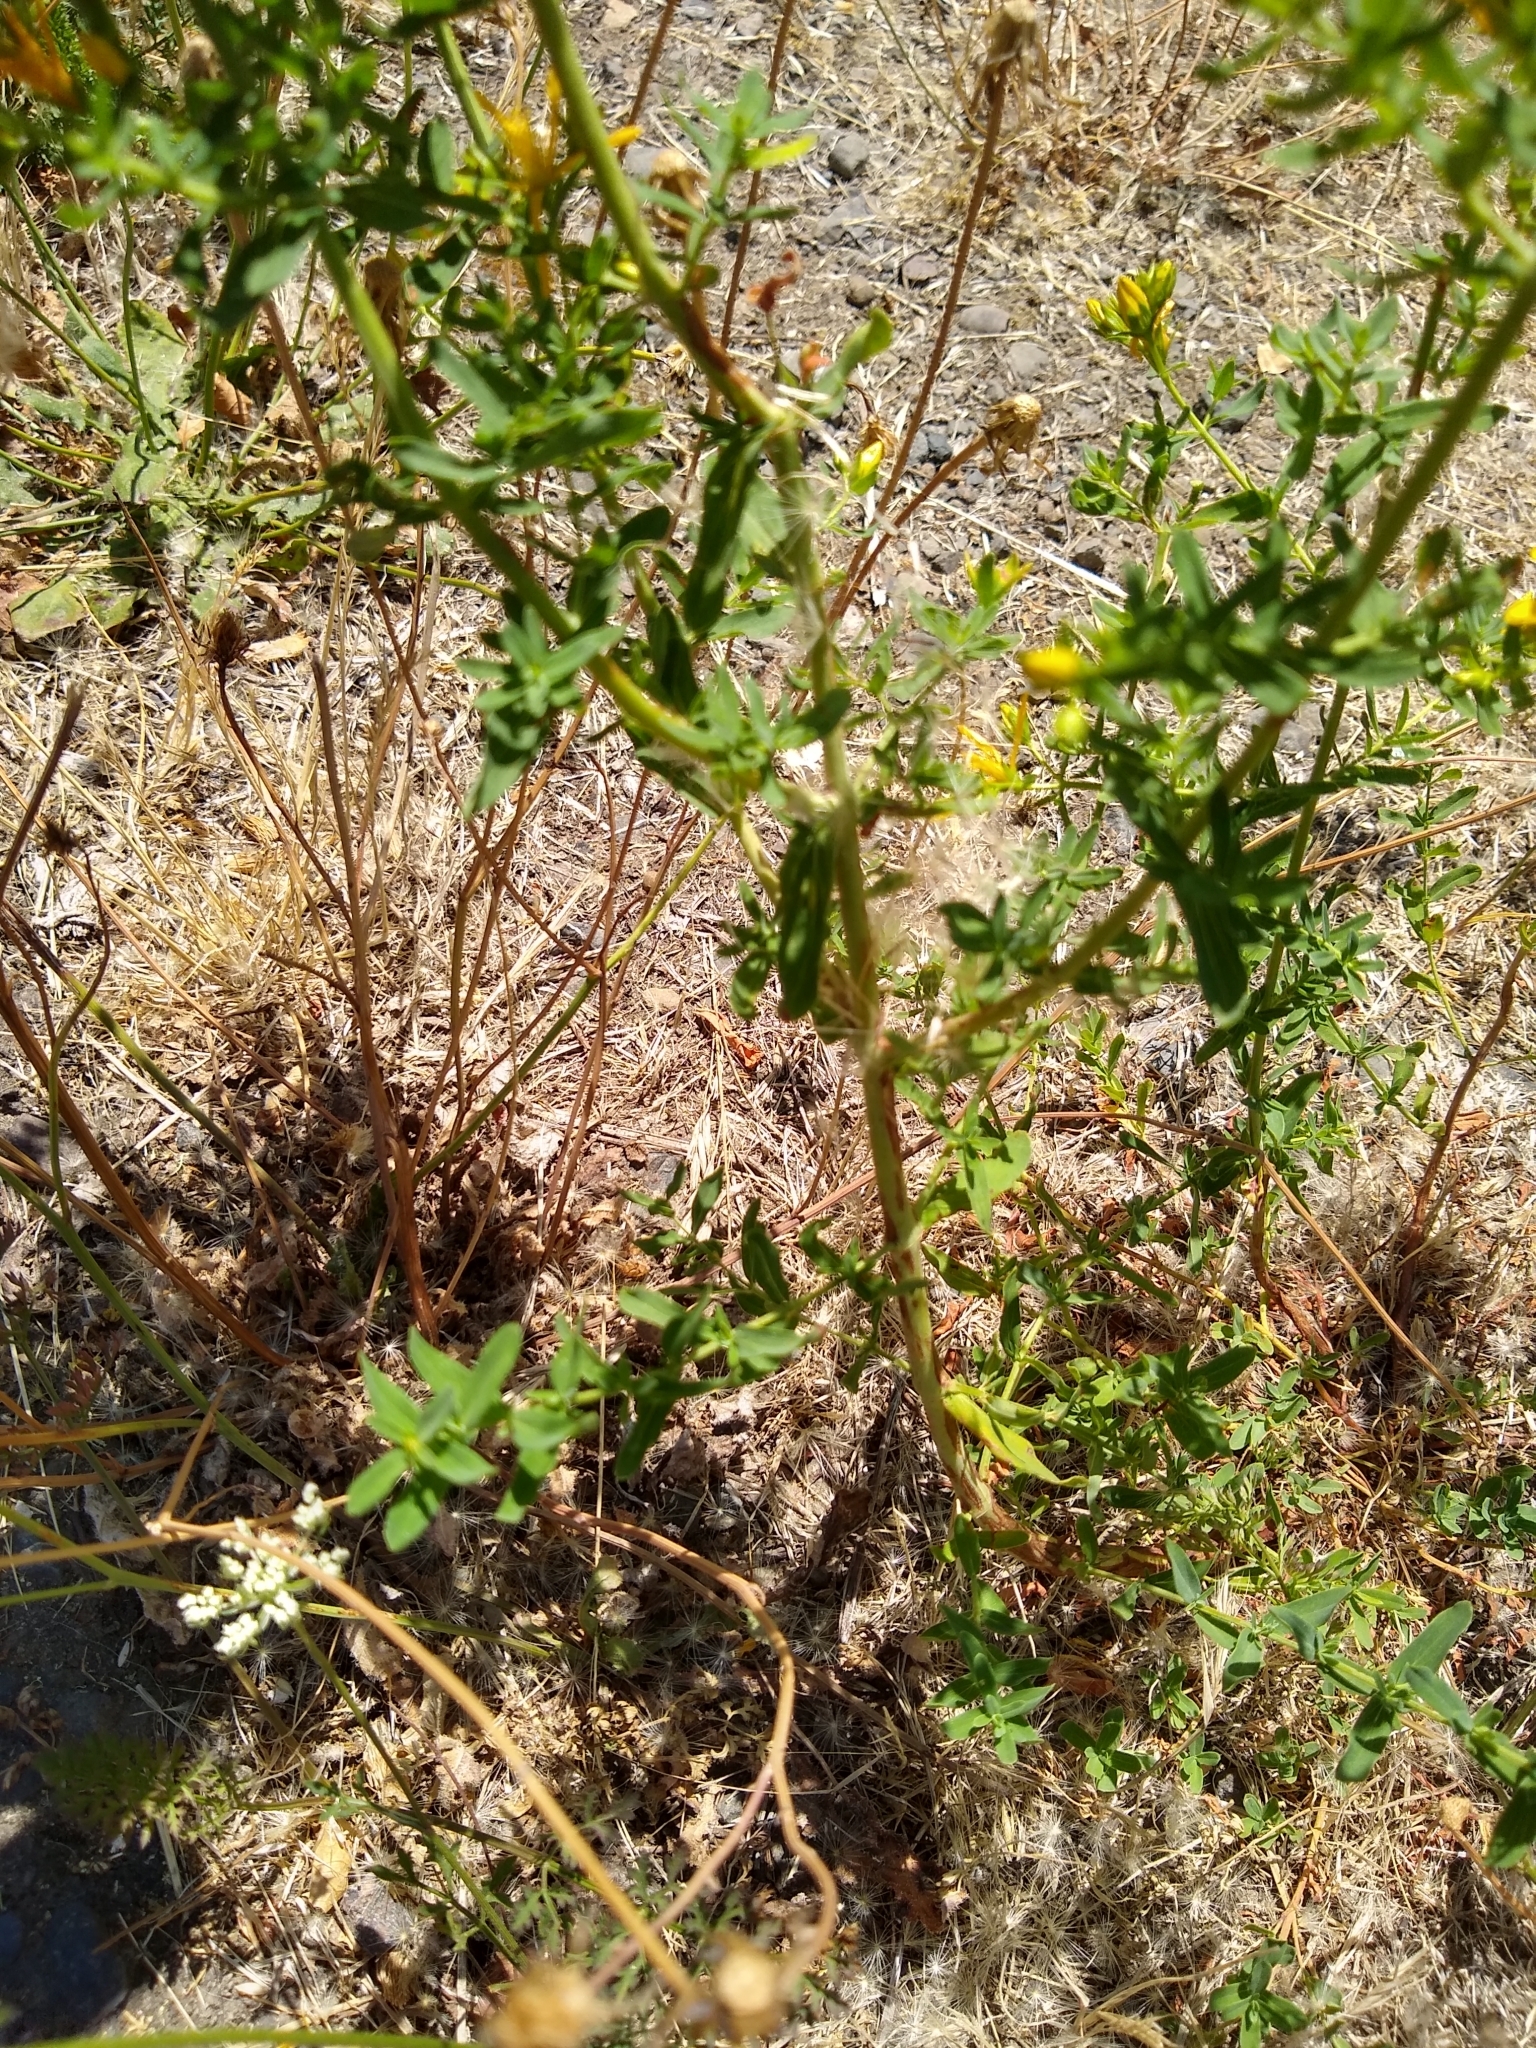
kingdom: Plantae
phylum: Tracheophyta
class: Magnoliopsida
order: Malpighiales
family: Hypericaceae
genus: Hypericum
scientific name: Hypericum perforatum
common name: Common st. johnswort
